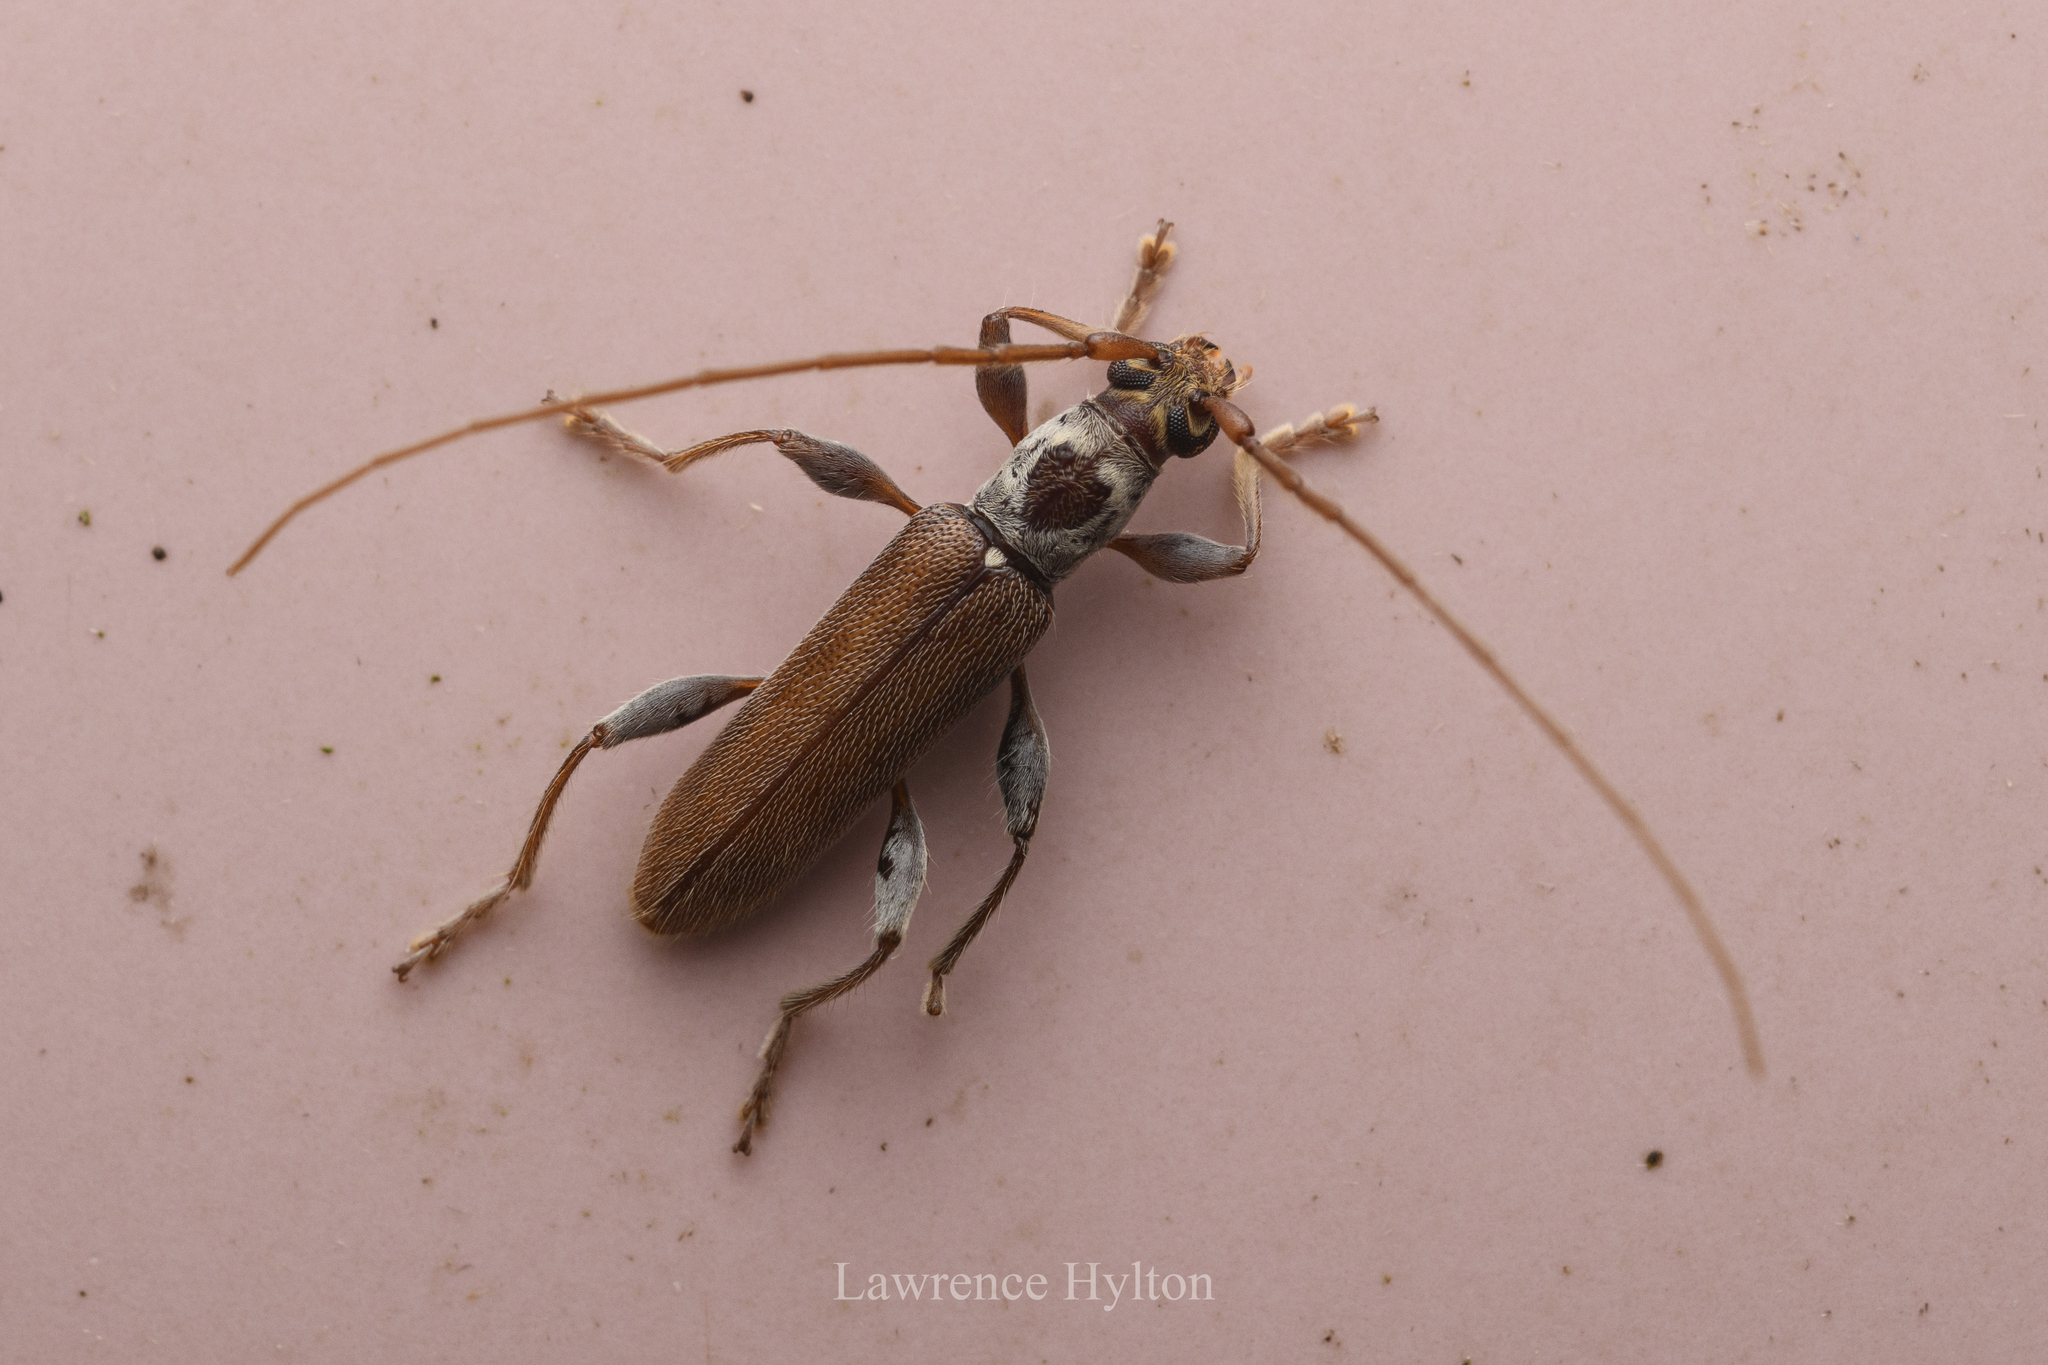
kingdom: Animalia
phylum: Arthropoda
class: Insecta
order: Coleoptera
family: Cerambycidae
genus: Ceresium
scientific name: Ceresium zeylanicum
